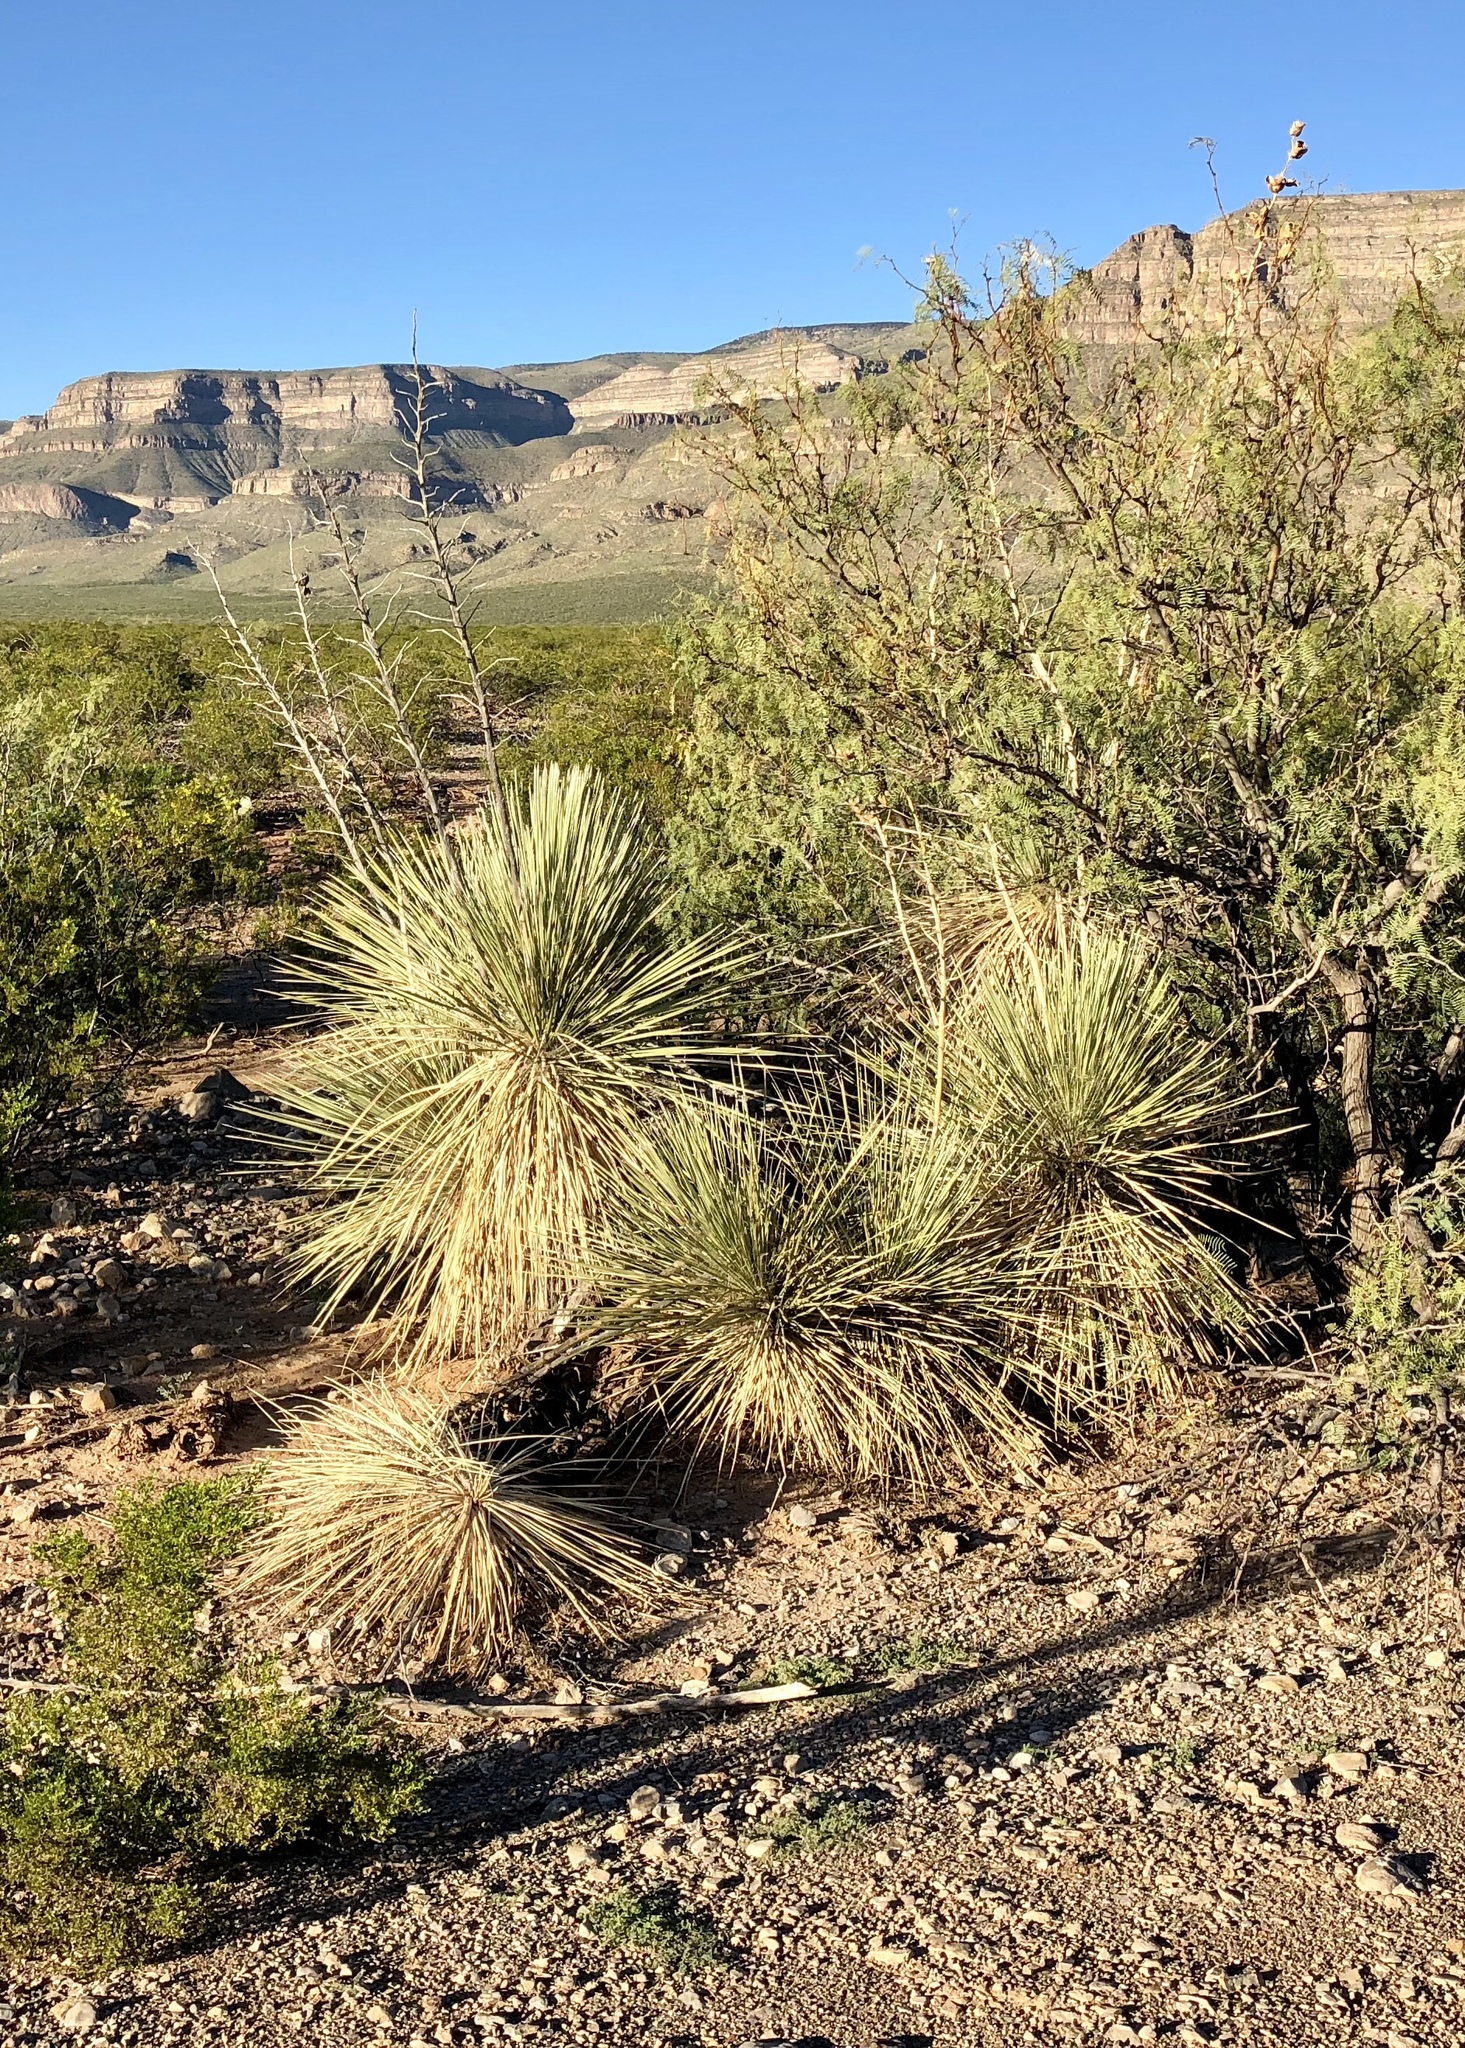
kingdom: Plantae
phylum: Tracheophyta
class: Liliopsida
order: Asparagales
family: Asparagaceae
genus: Yucca
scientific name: Yucca elata
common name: Palmella
